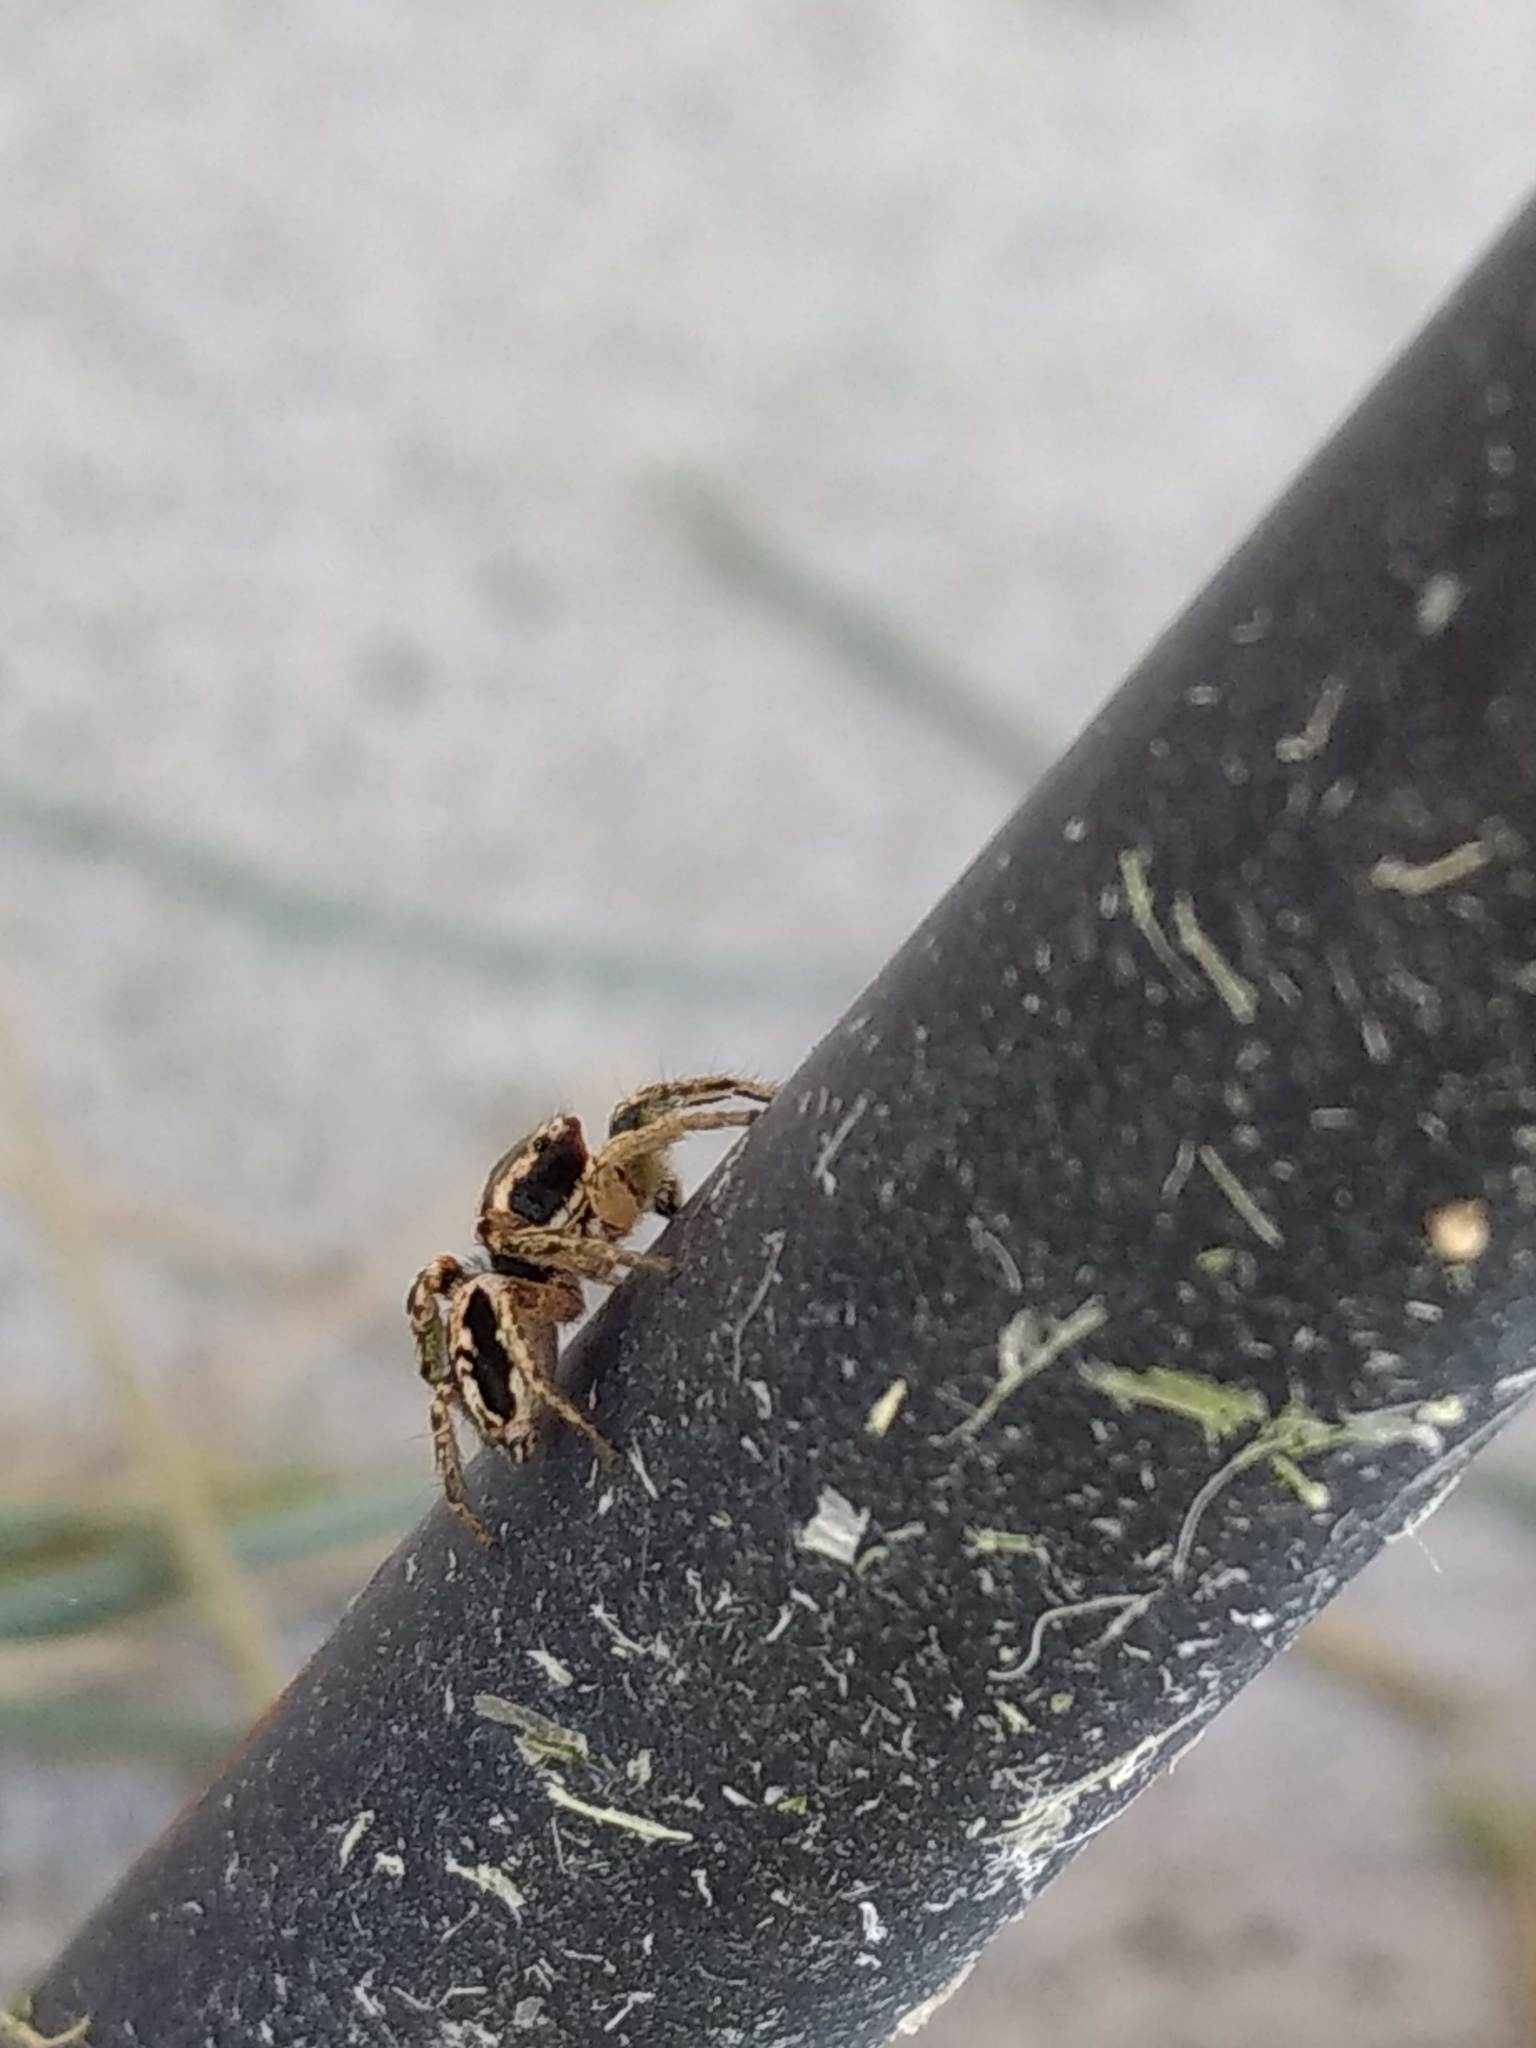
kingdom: Animalia
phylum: Arthropoda
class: Arachnida
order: Araneae
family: Salticidae
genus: Habronattus
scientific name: Habronattus pyrrithrix
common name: Jumping spider
